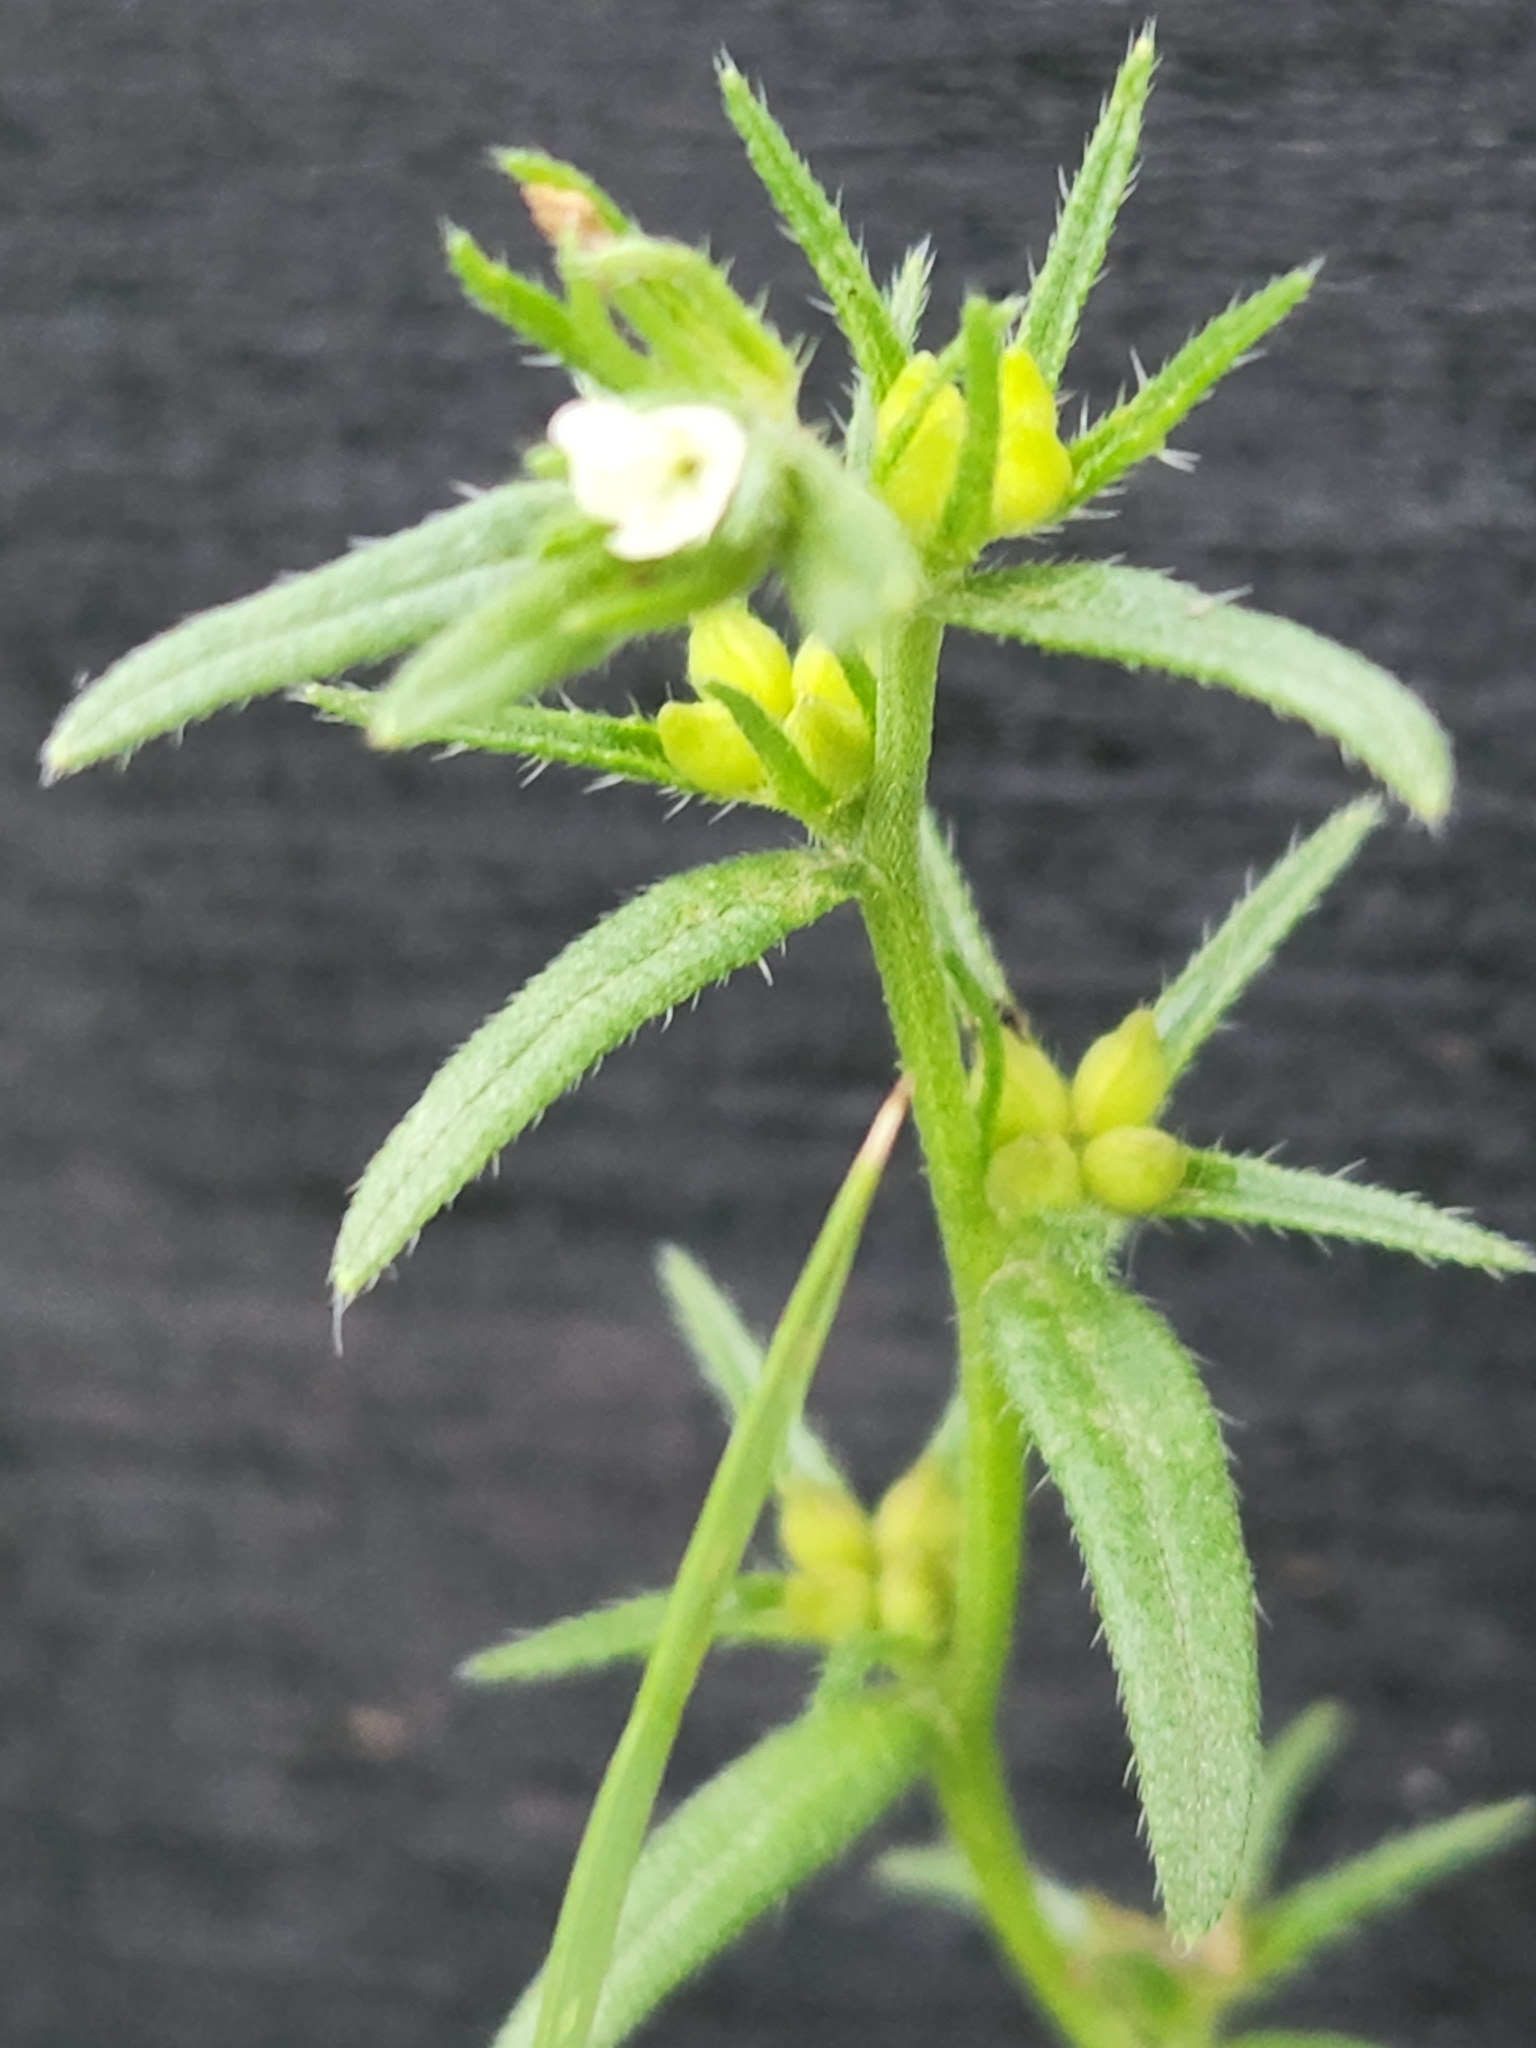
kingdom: Plantae
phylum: Tracheophyta
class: Magnoliopsida
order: Boraginales
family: Boraginaceae
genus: Buglossoides
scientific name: Buglossoides arvensis
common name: Corn gromwell
